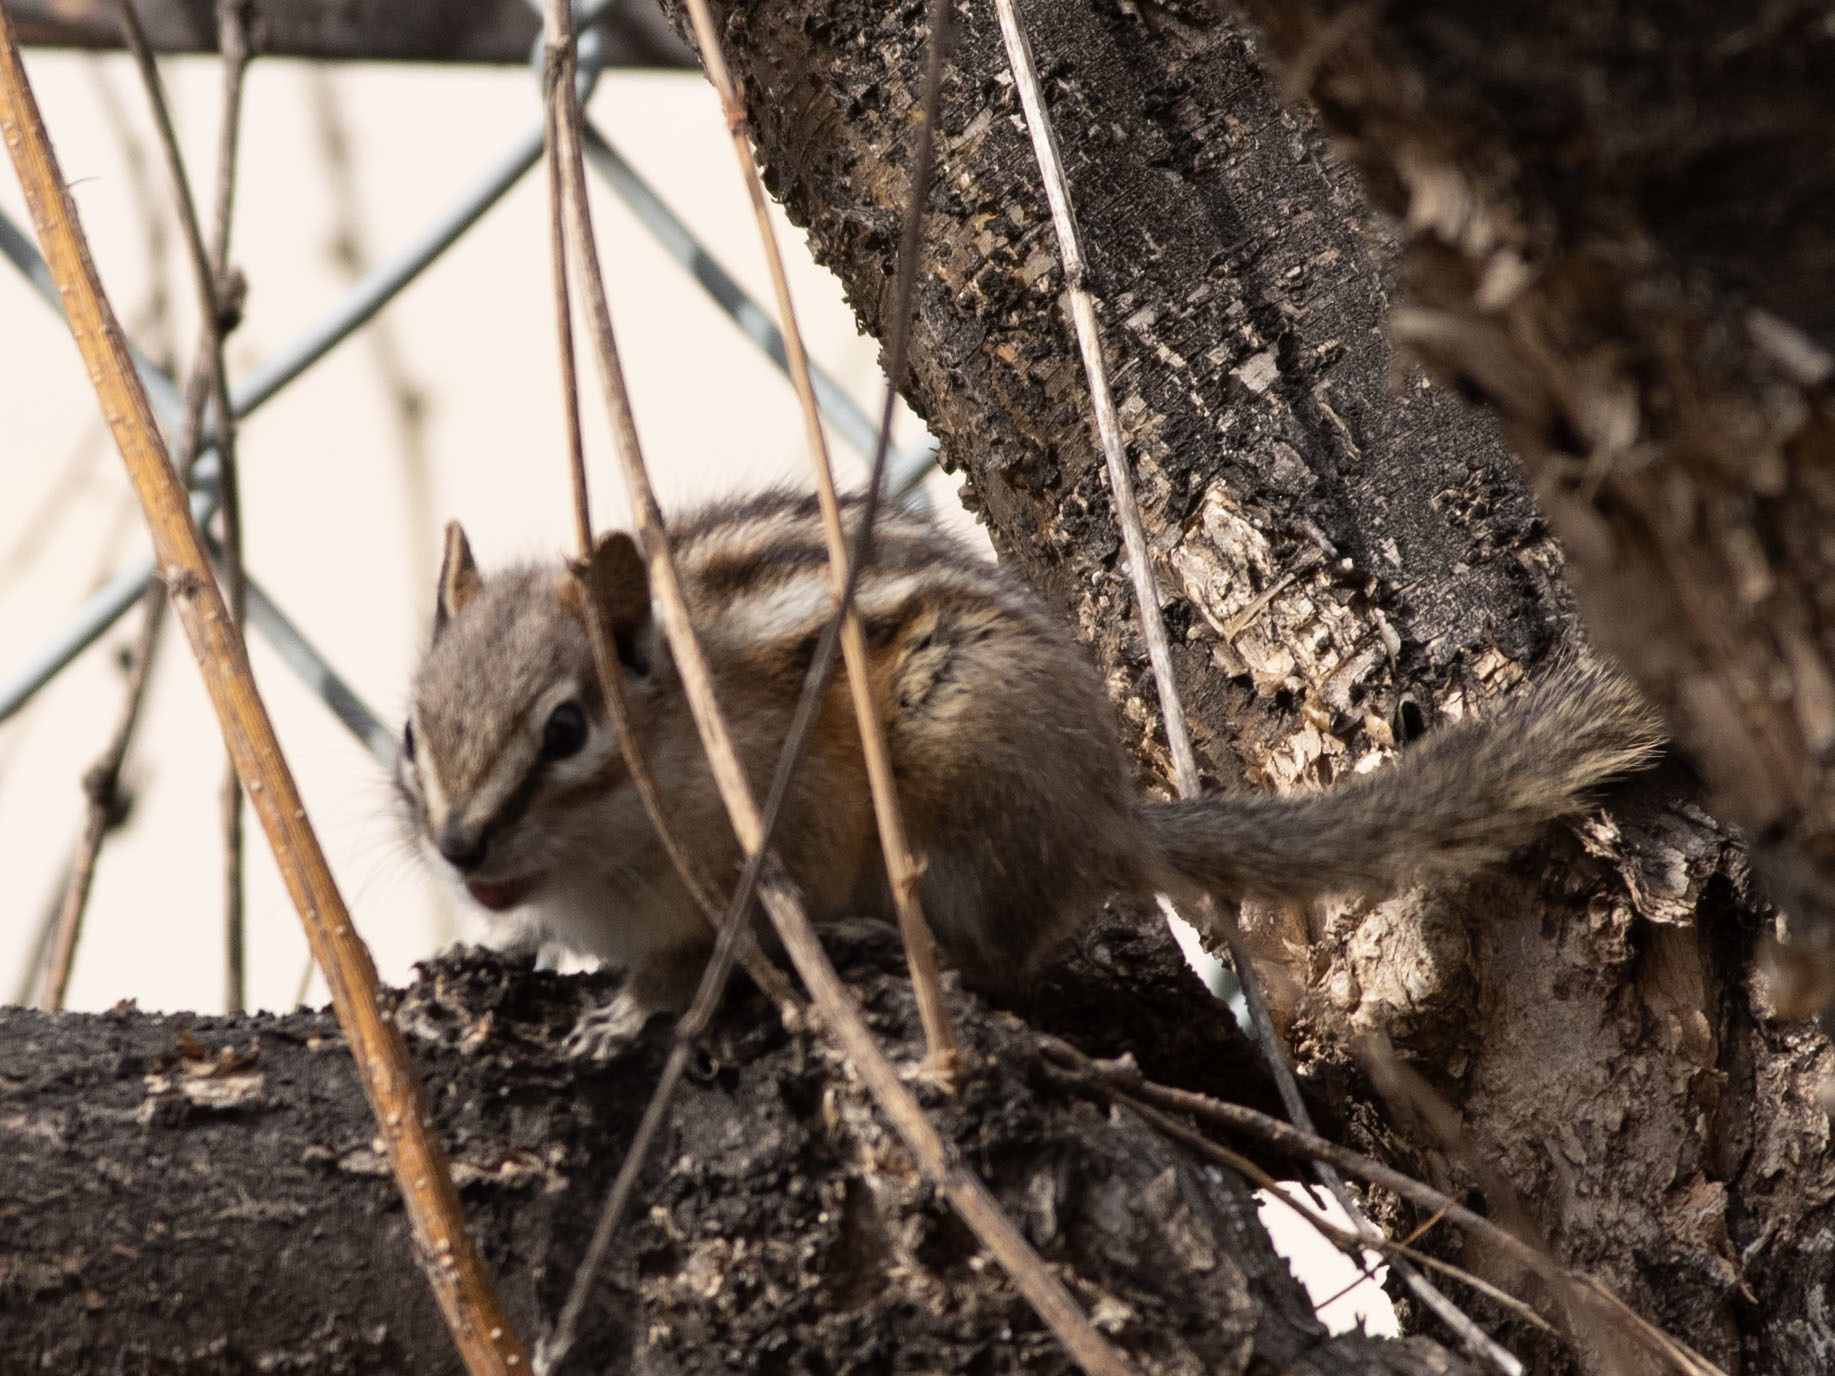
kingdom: Animalia
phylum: Chordata
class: Mammalia
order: Rodentia
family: Sciuridae
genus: Tamias
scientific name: Tamias minimus
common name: Least chipmunk
